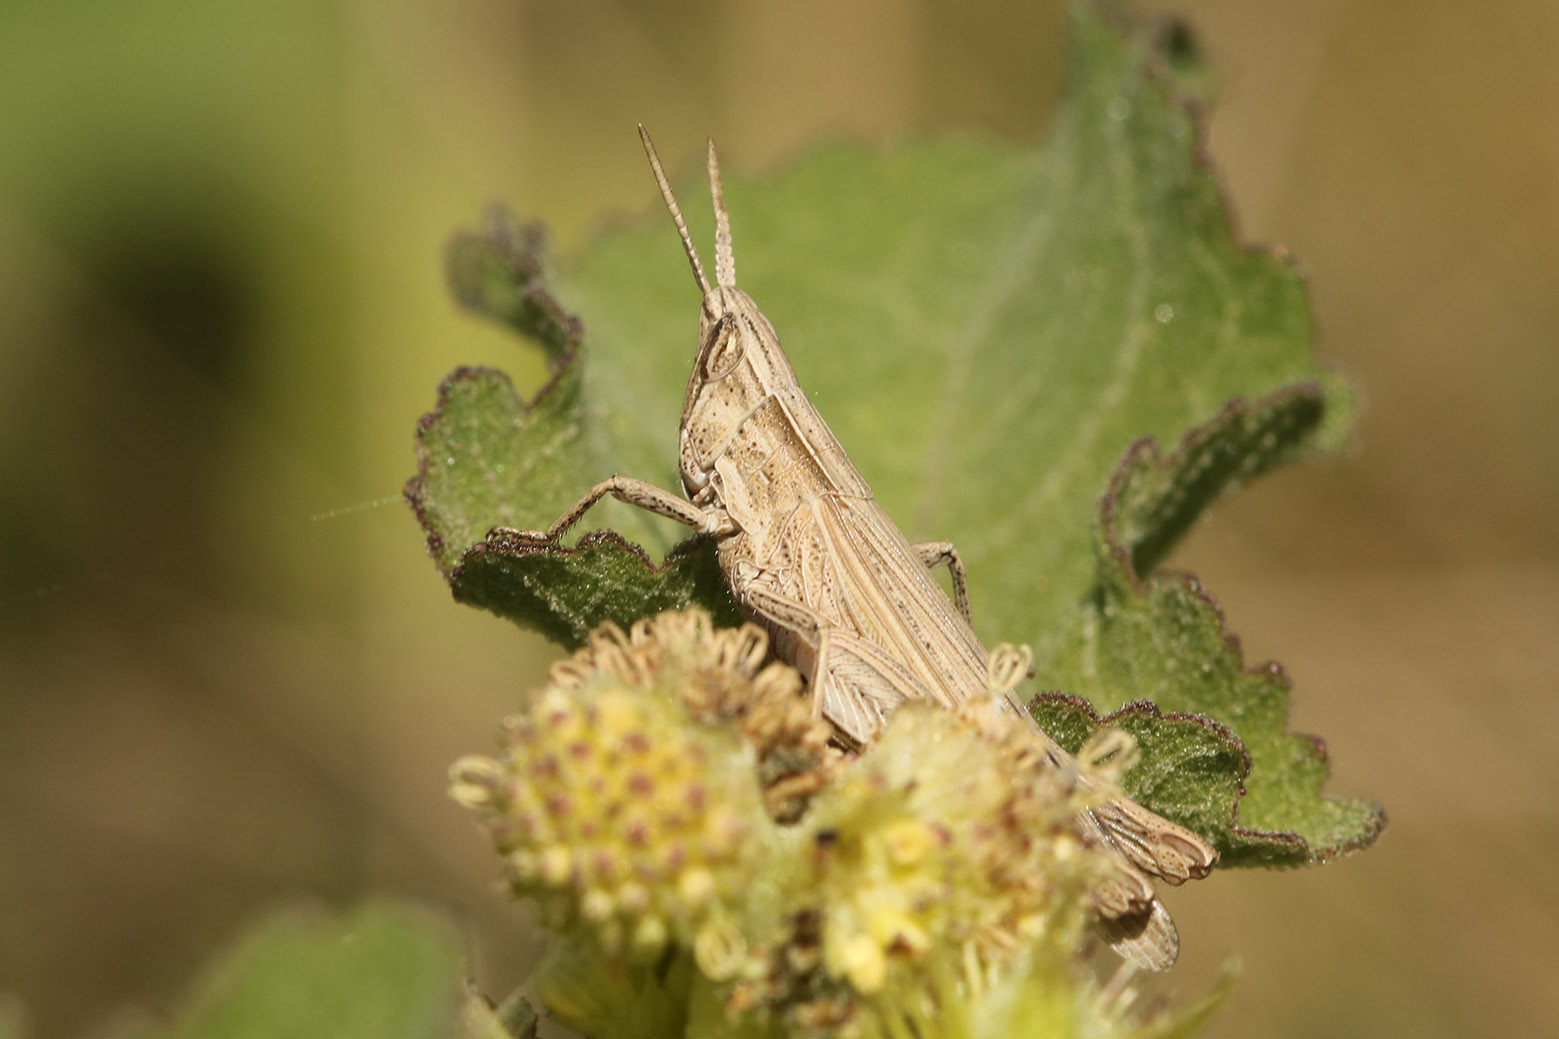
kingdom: Animalia
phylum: Arthropoda
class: Insecta
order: Orthoptera
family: Acrididae
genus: Laplatacris
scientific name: Laplatacris dispar
